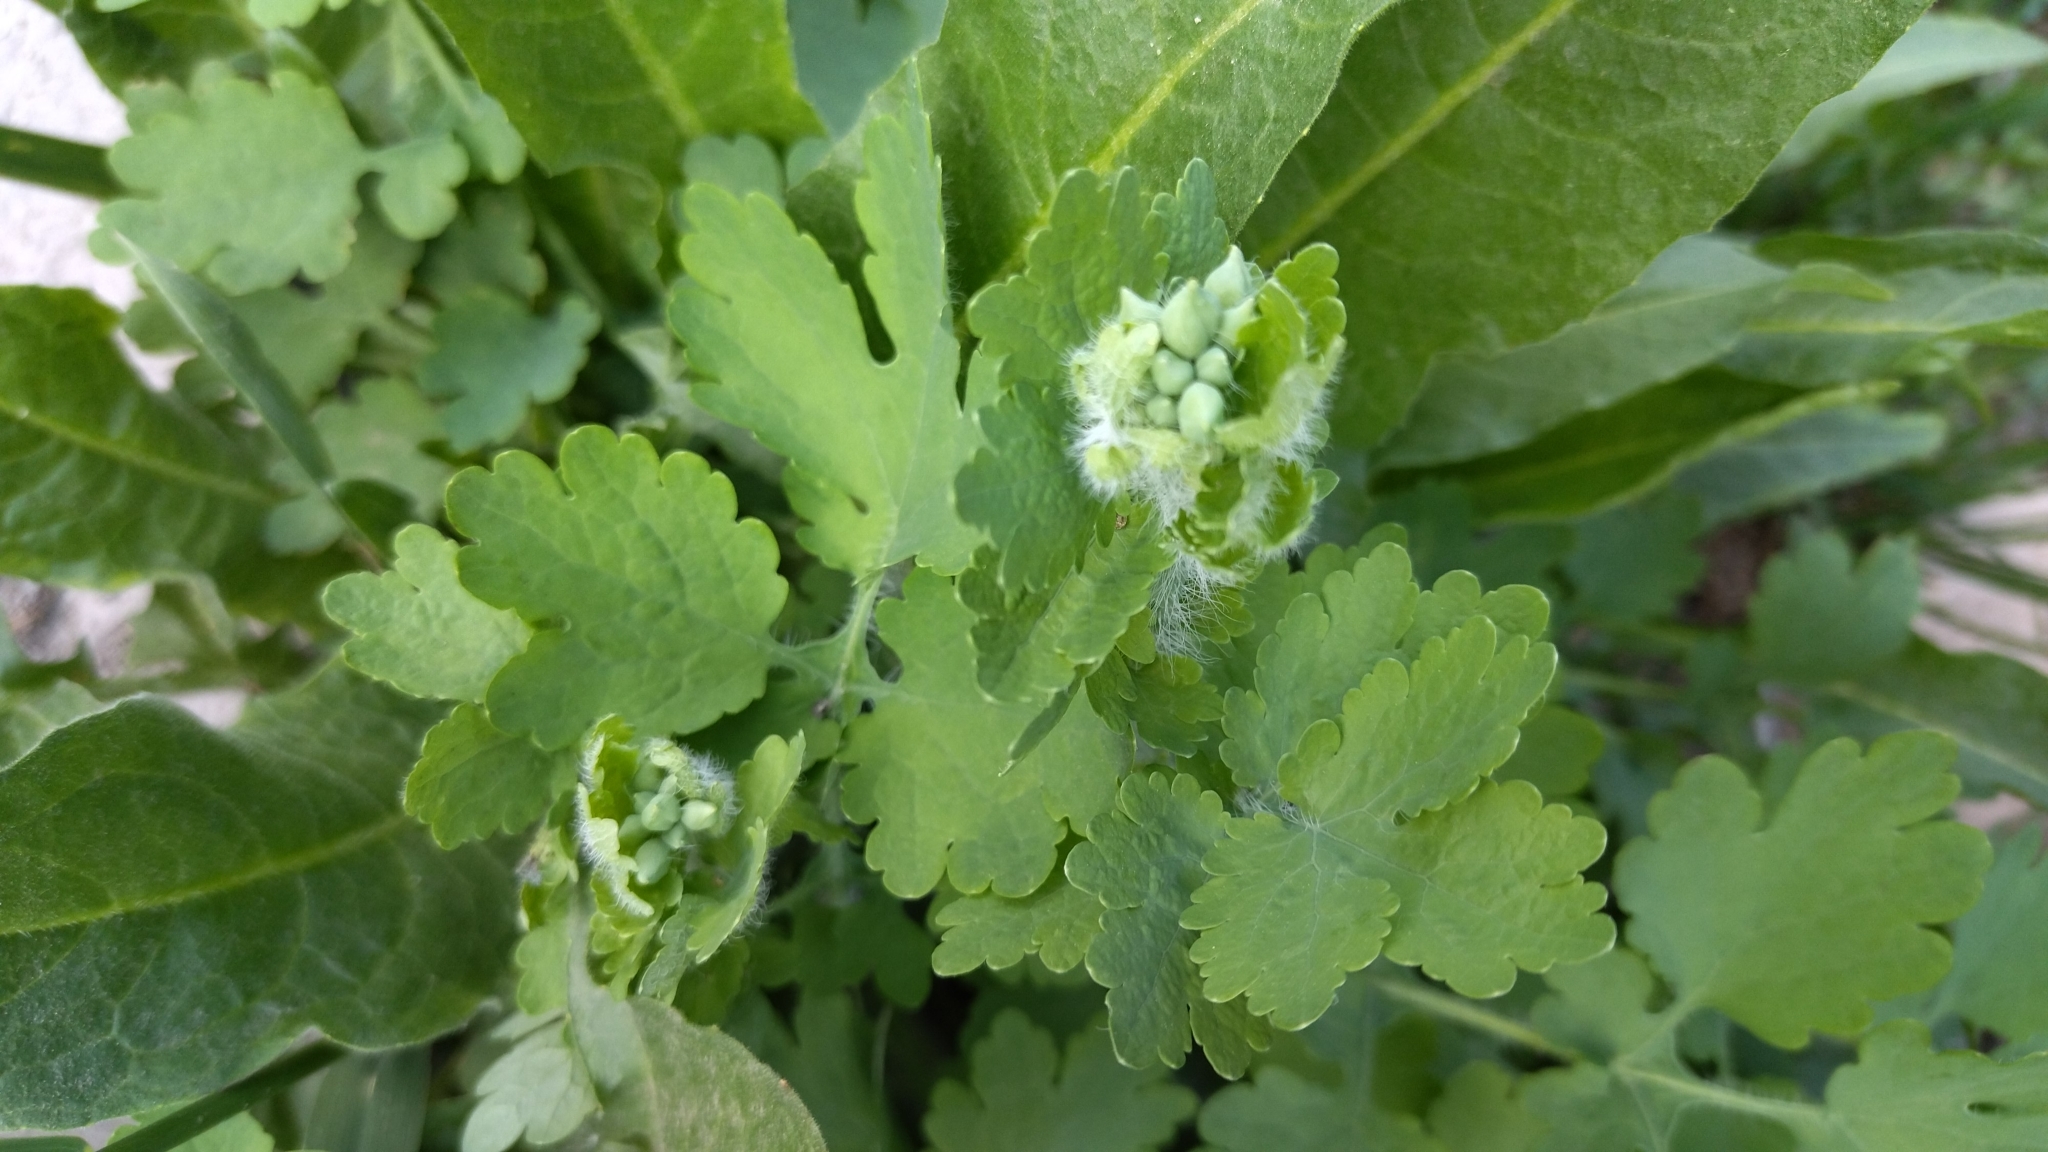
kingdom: Plantae
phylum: Tracheophyta
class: Magnoliopsida
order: Ranunculales
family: Papaveraceae
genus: Chelidonium
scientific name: Chelidonium majus
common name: Greater celandine
